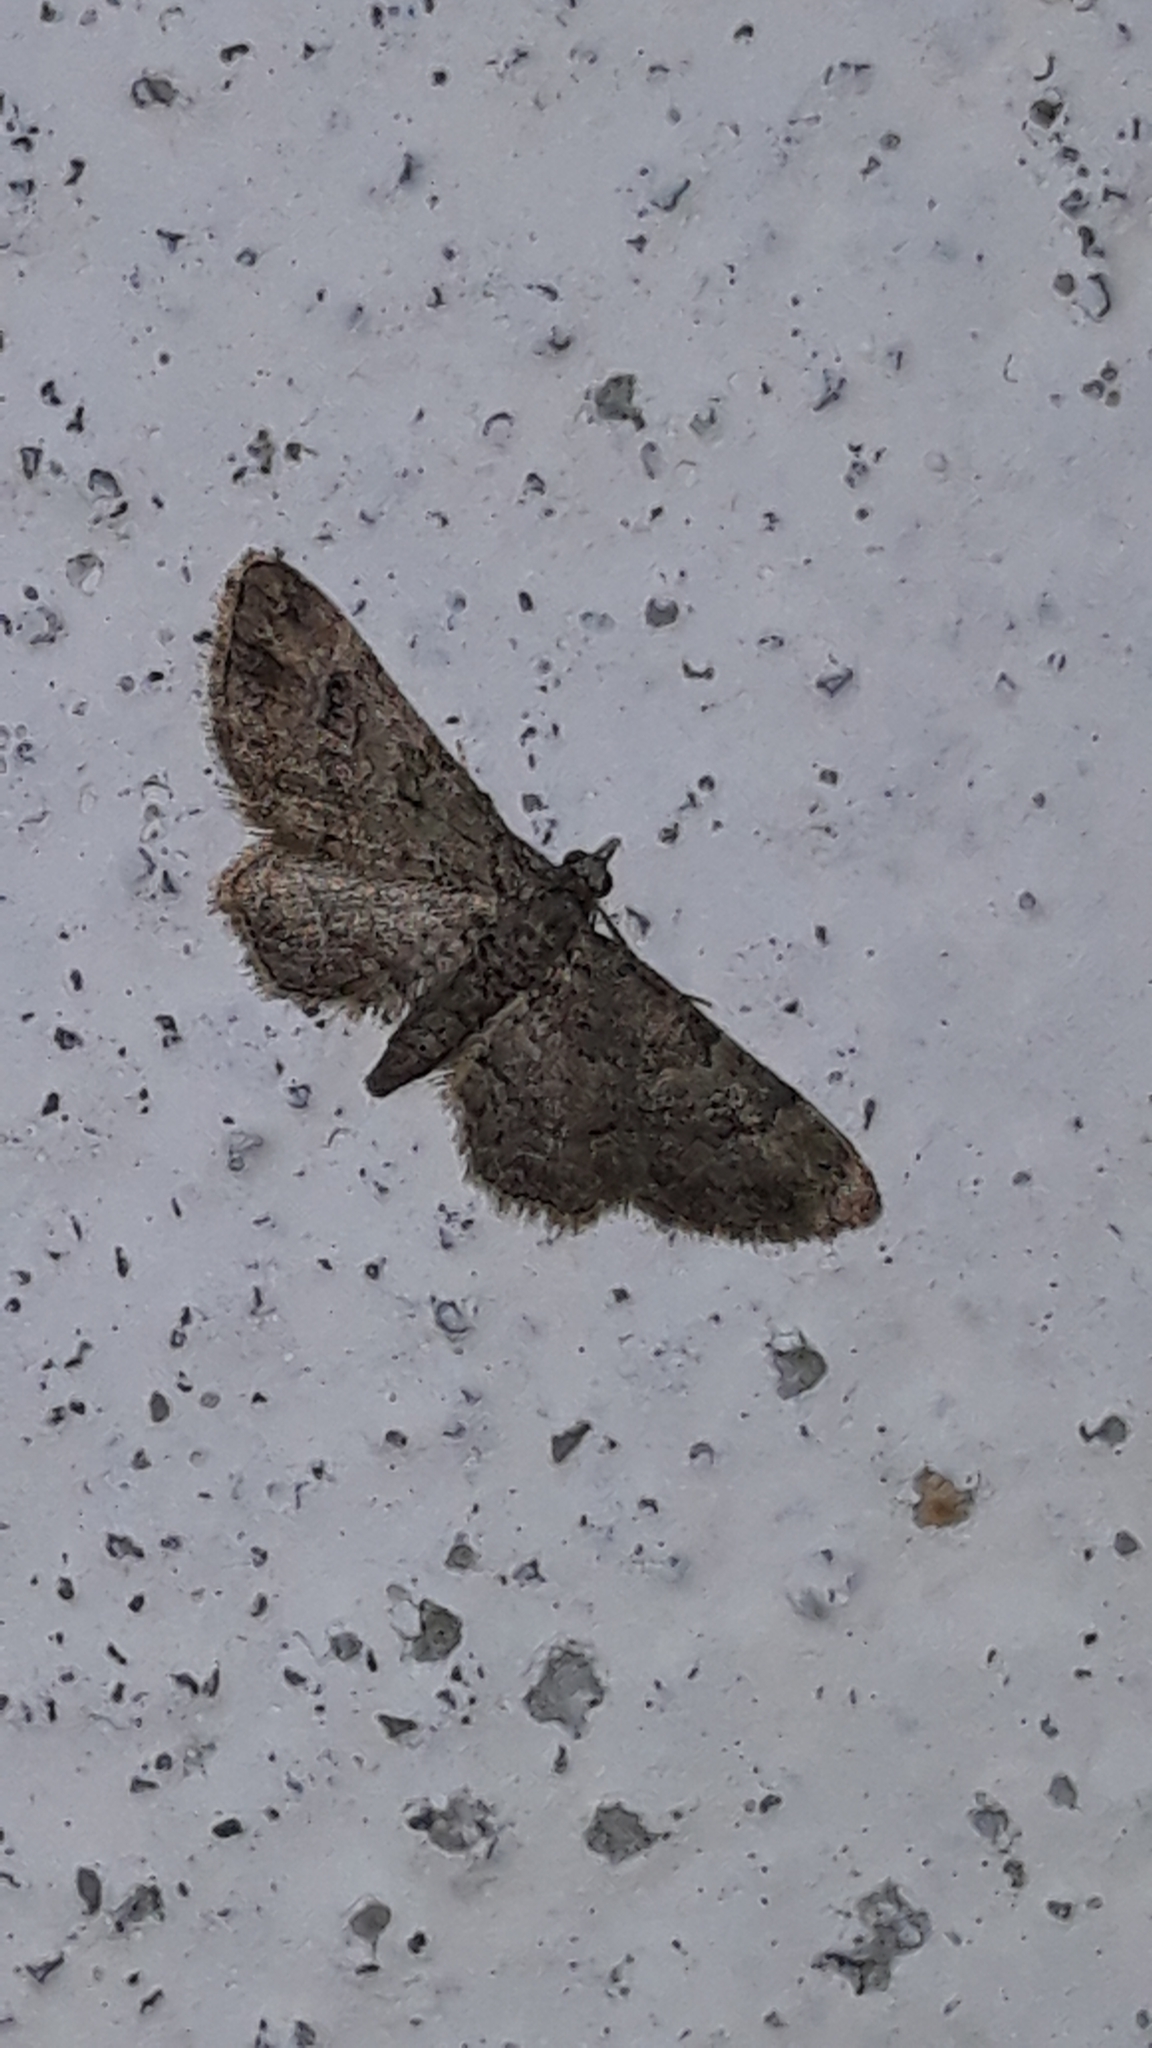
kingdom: Animalia
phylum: Arthropoda
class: Insecta
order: Lepidoptera
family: Geometridae
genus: Gymnoscelis
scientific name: Gymnoscelis rufifasciata
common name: Double-striped pug
